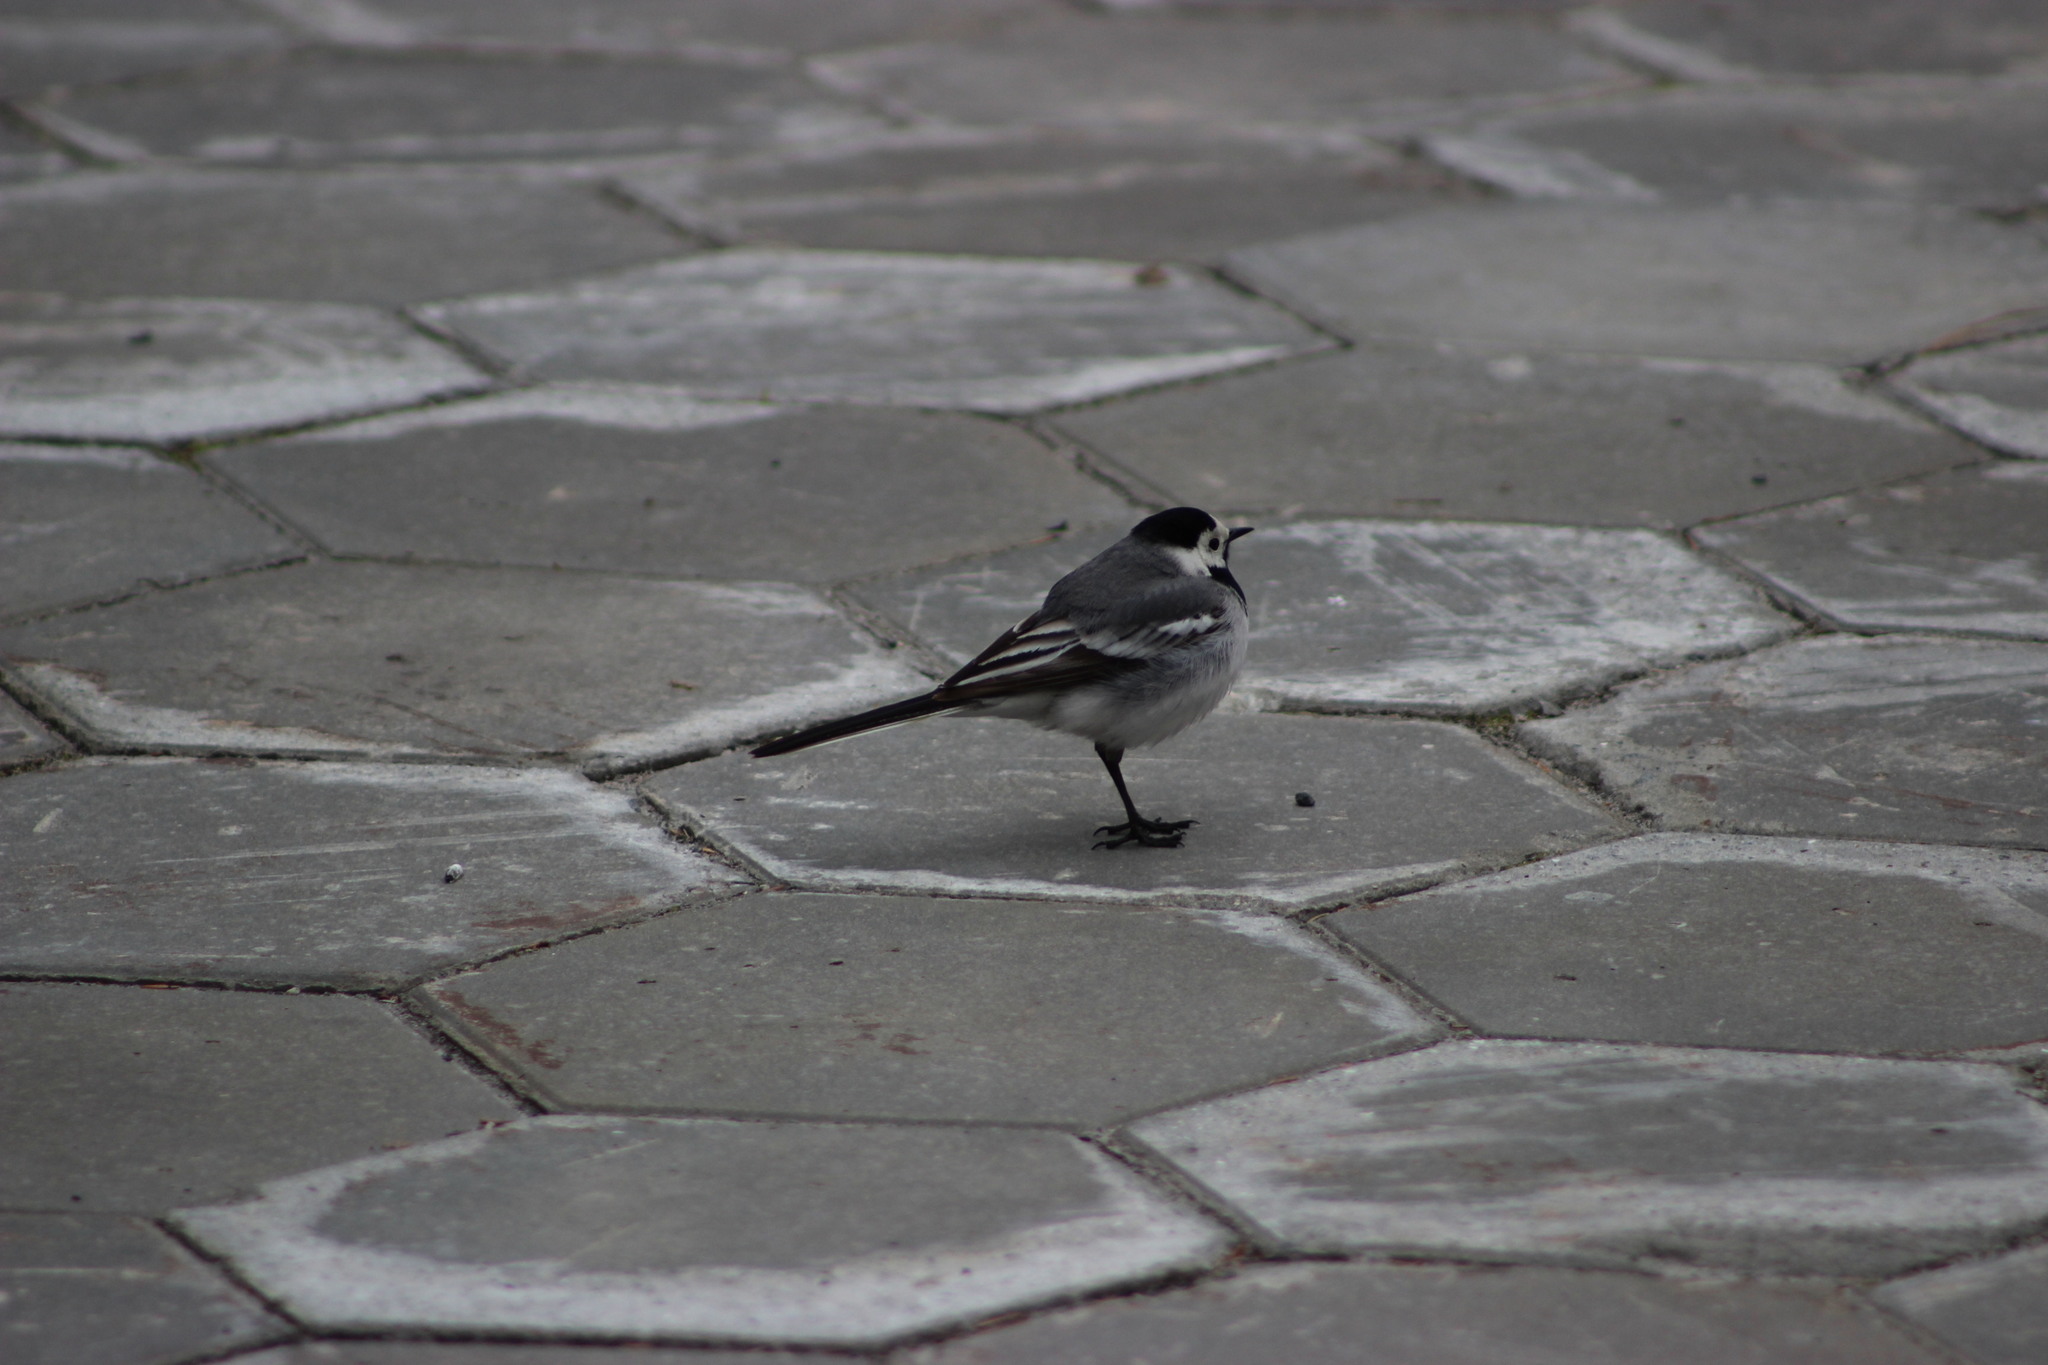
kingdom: Animalia
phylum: Chordata
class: Aves
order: Passeriformes
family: Motacillidae
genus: Motacilla
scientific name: Motacilla alba
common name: White wagtail
